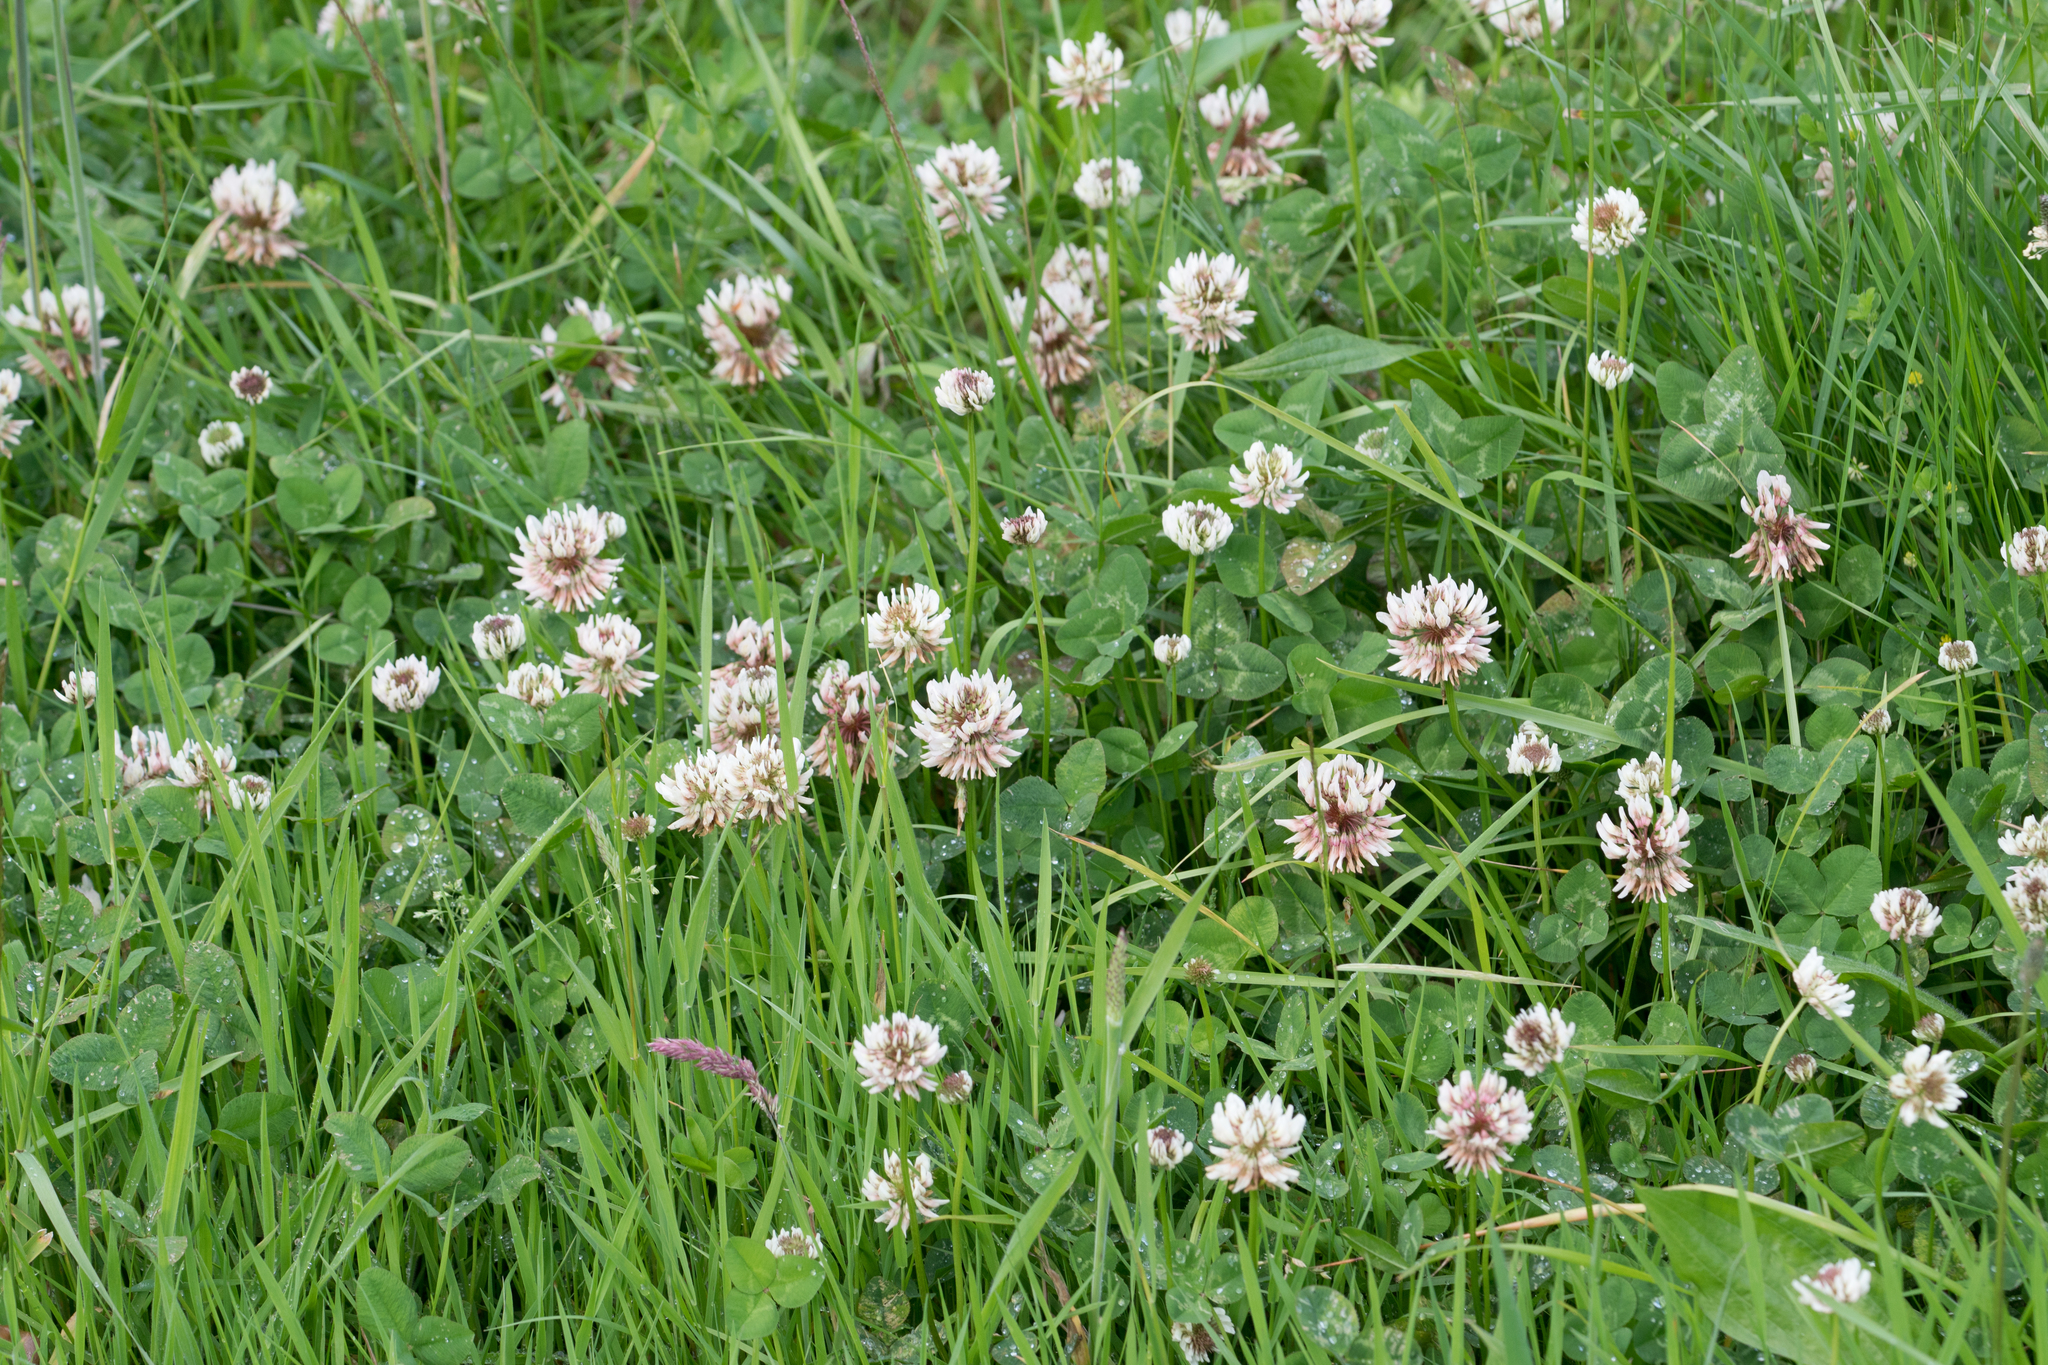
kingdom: Plantae
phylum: Tracheophyta
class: Magnoliopsida
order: Fabales
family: Fabaceae
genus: Trifolium
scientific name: Trifolium repens
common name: White clover
